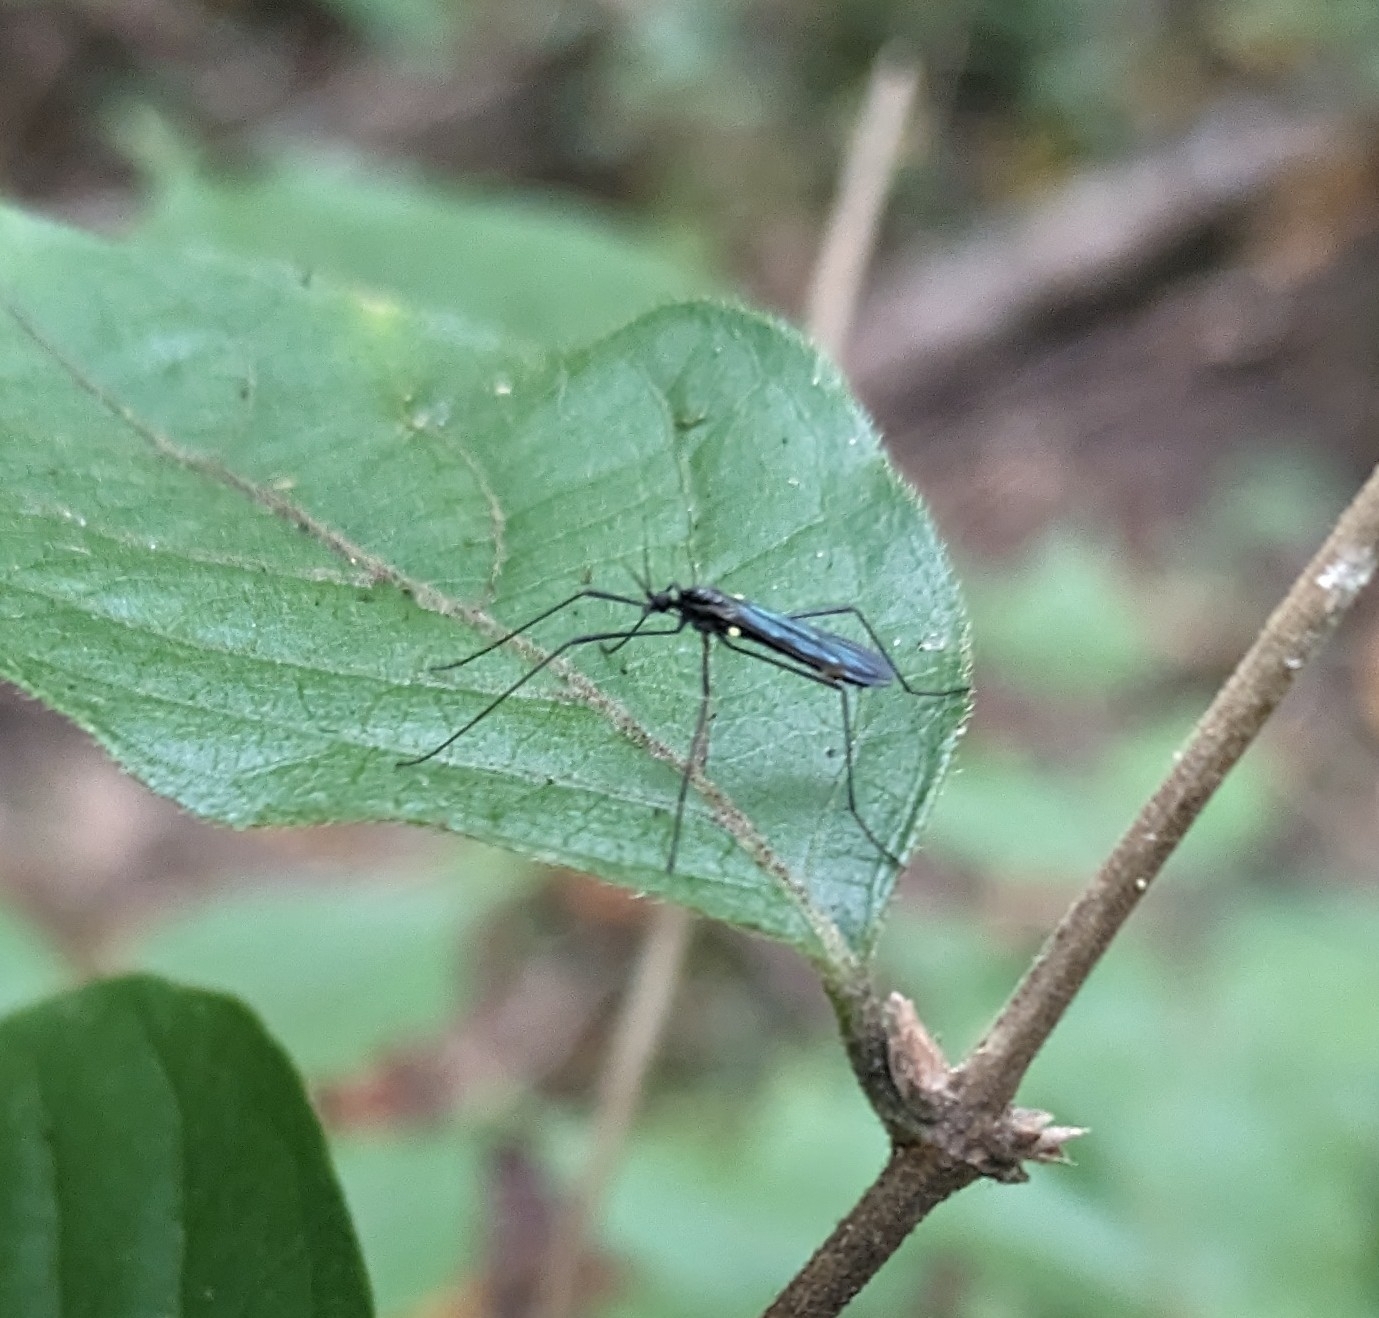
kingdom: Animalia
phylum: Arthropoda
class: Insecta
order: Diptera
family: Limoniidae
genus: Gnophomyia
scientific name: Gnophomyia tristissima
